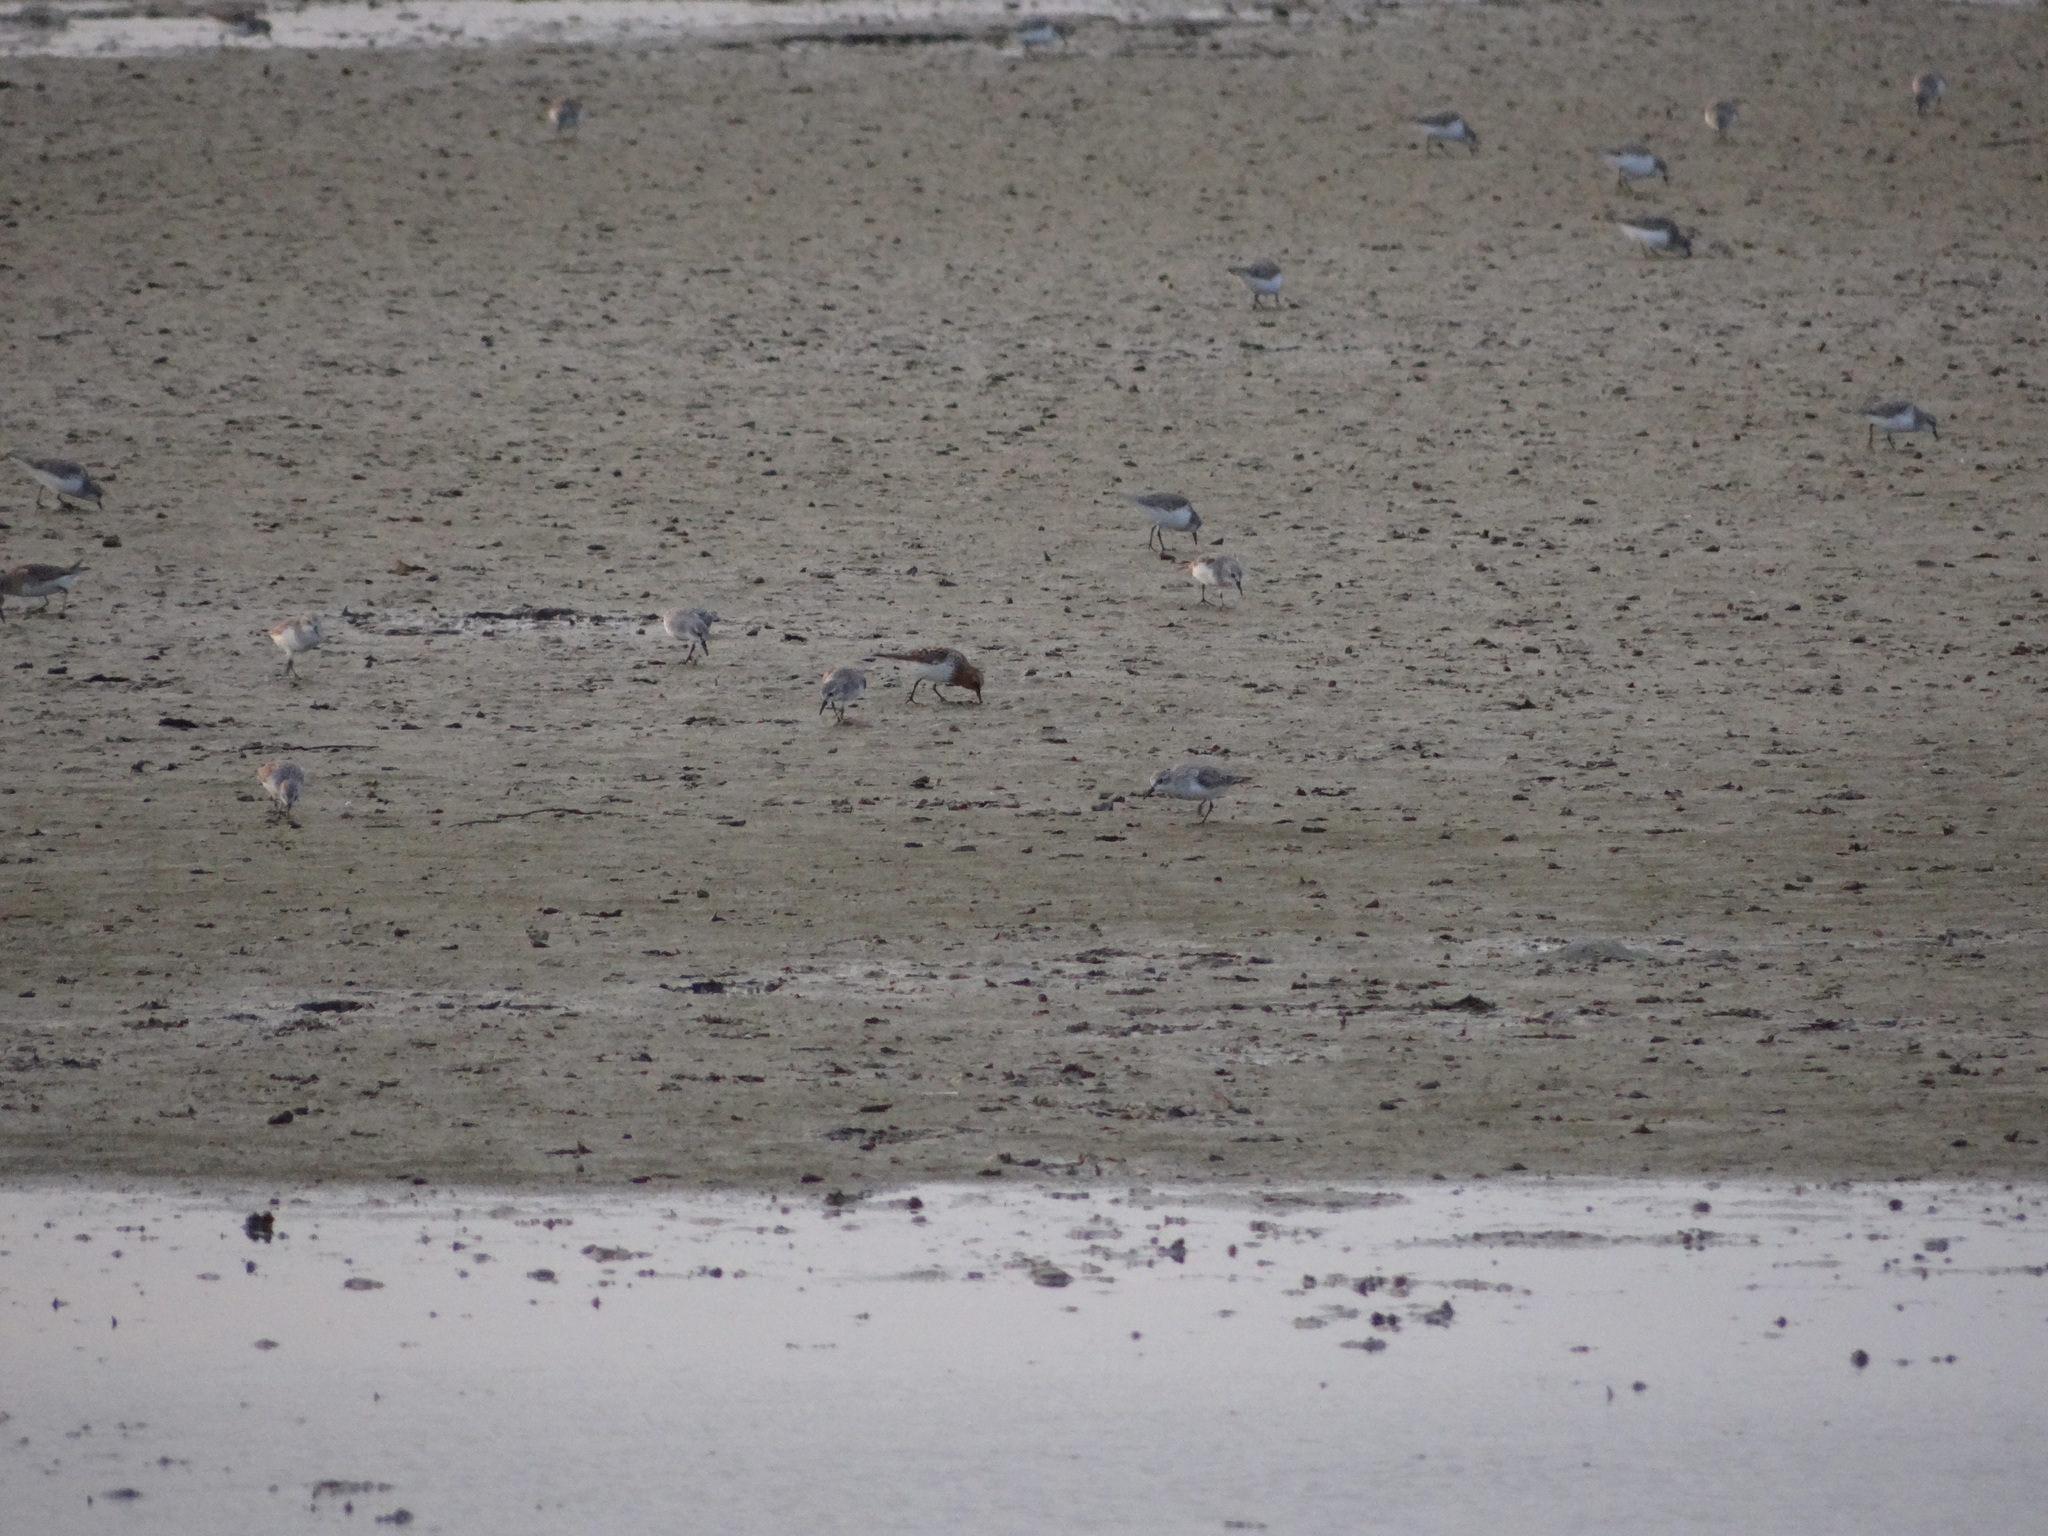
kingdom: Animalia
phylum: Chordata
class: Aves
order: Charadriiformes
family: Scolopacidae
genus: Calidris
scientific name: Calidris ruficollis
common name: Red-necked stint
